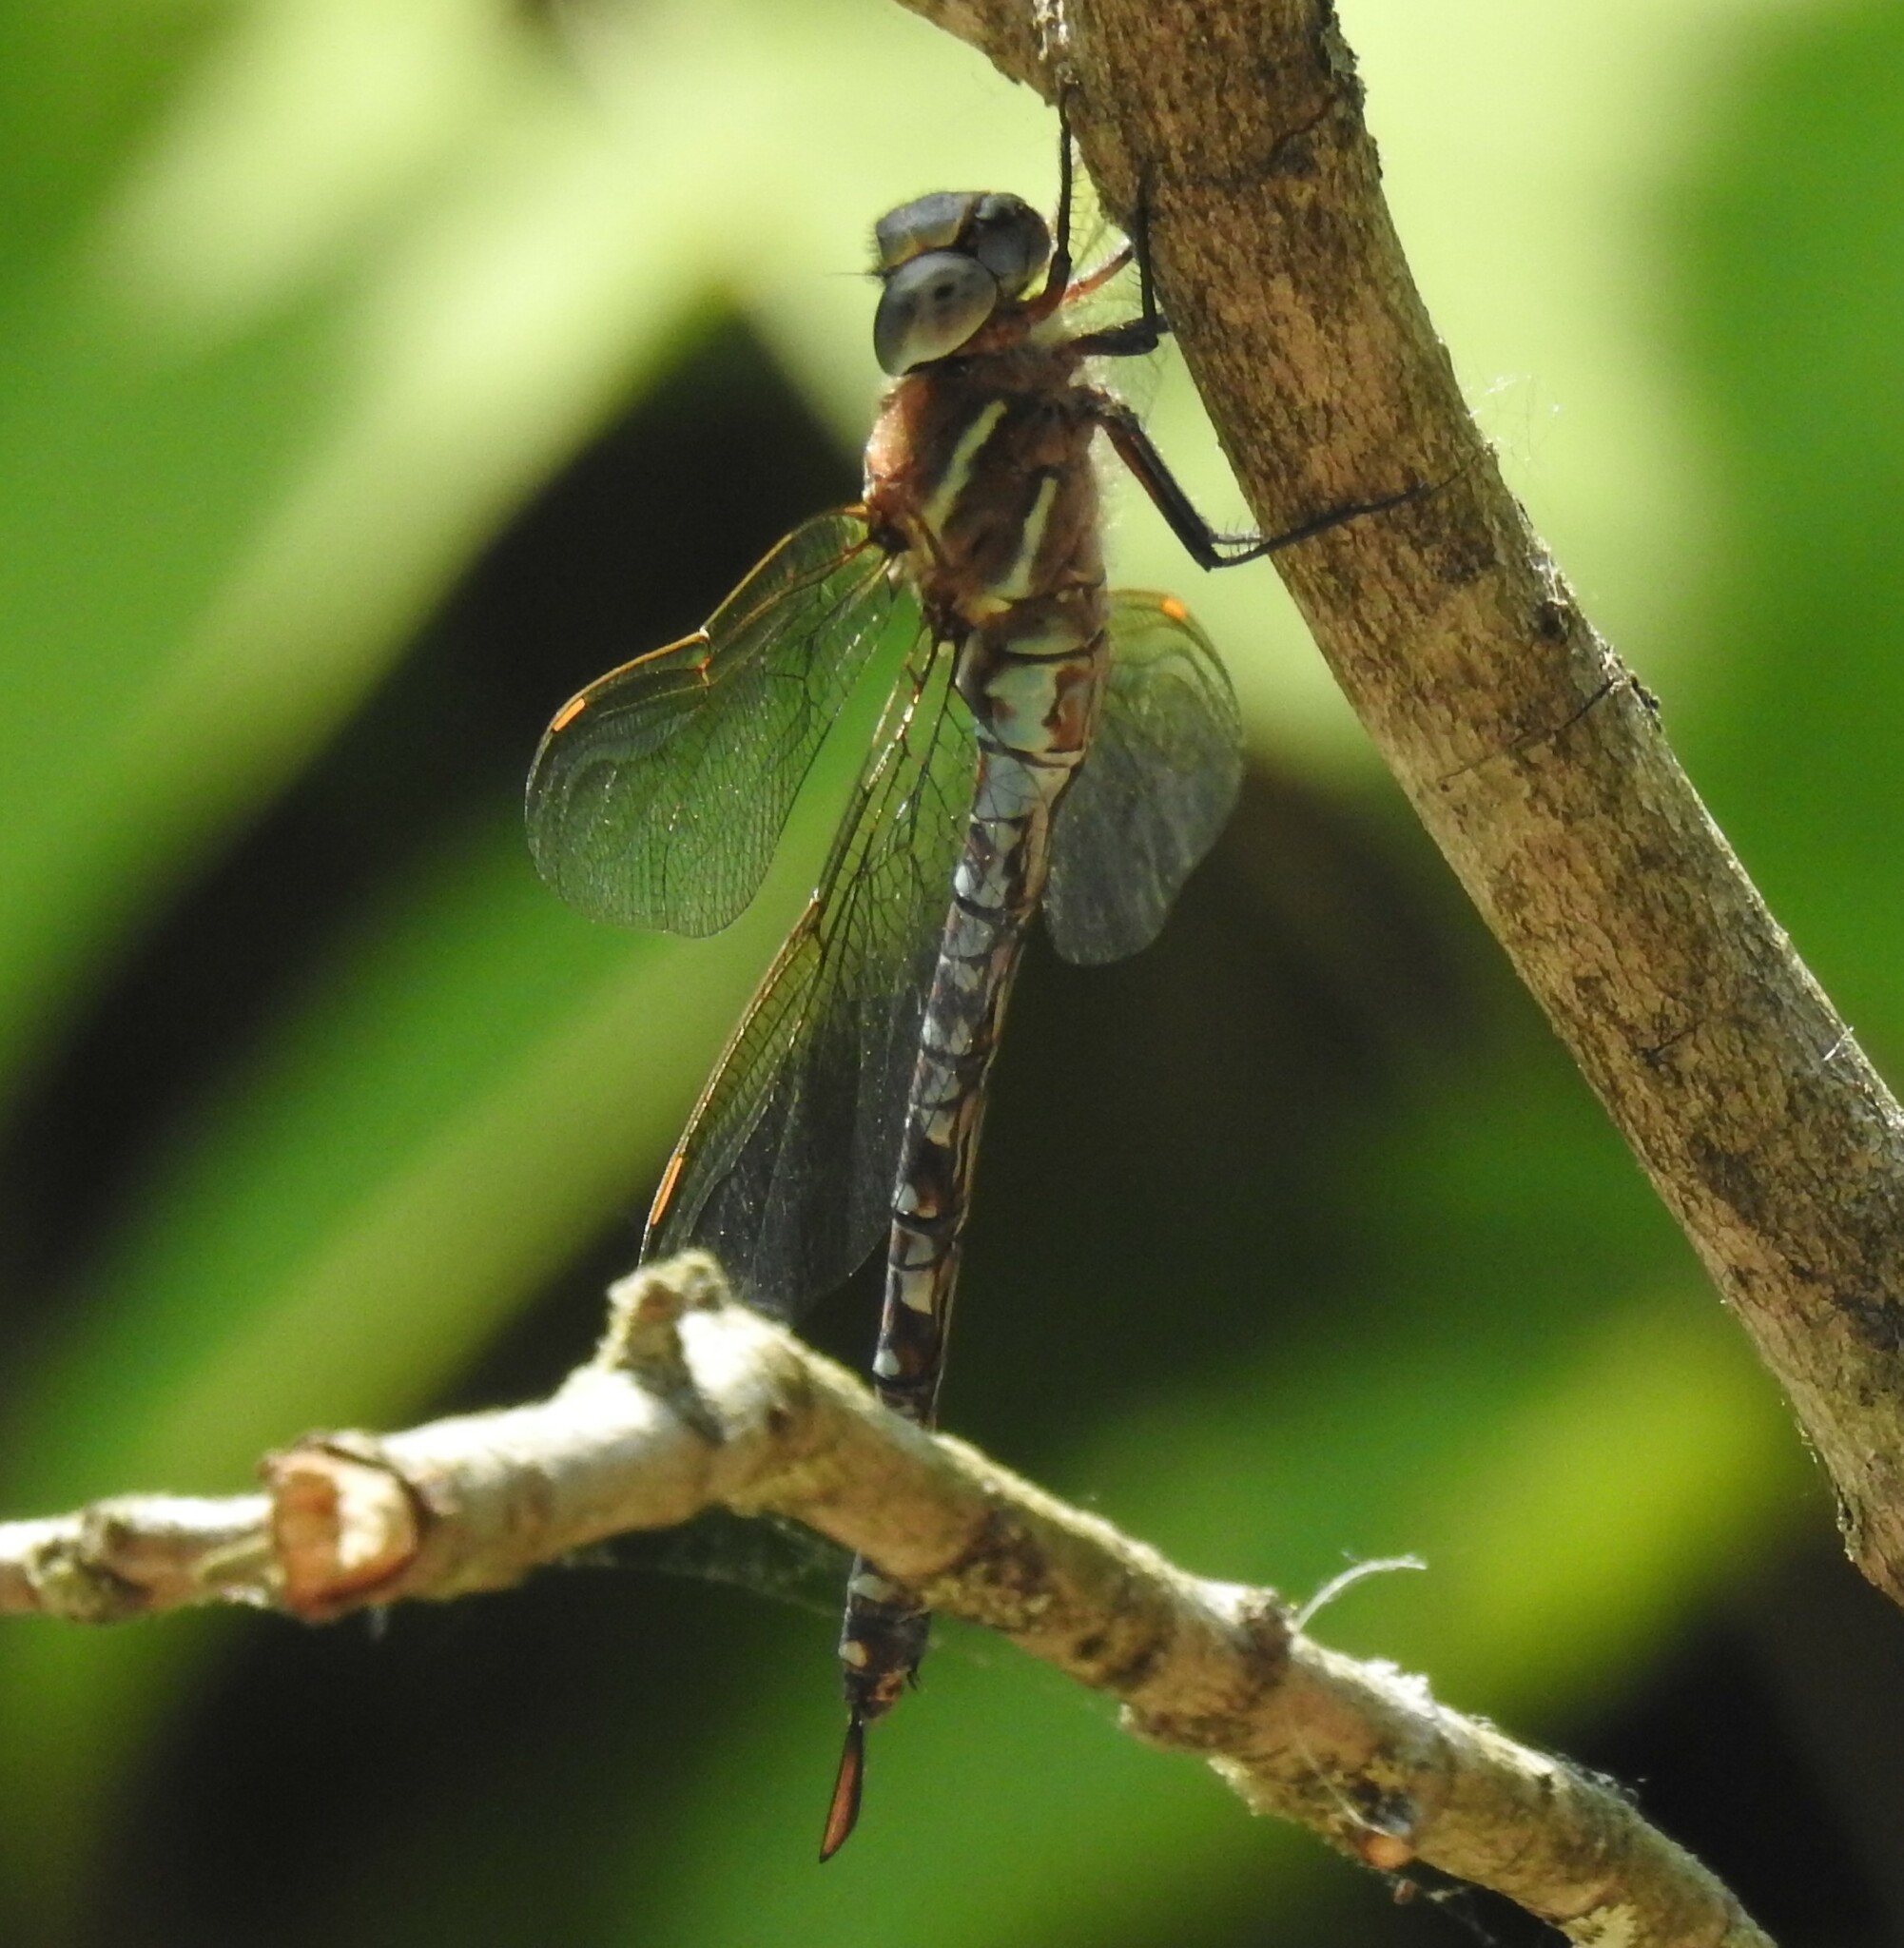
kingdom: Animalia
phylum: Arthropoda
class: Insecta
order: Odonata
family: Aeshnidae
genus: Rhionaeschna
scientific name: Rhionaeschna mutata
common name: Spatterdock darner
